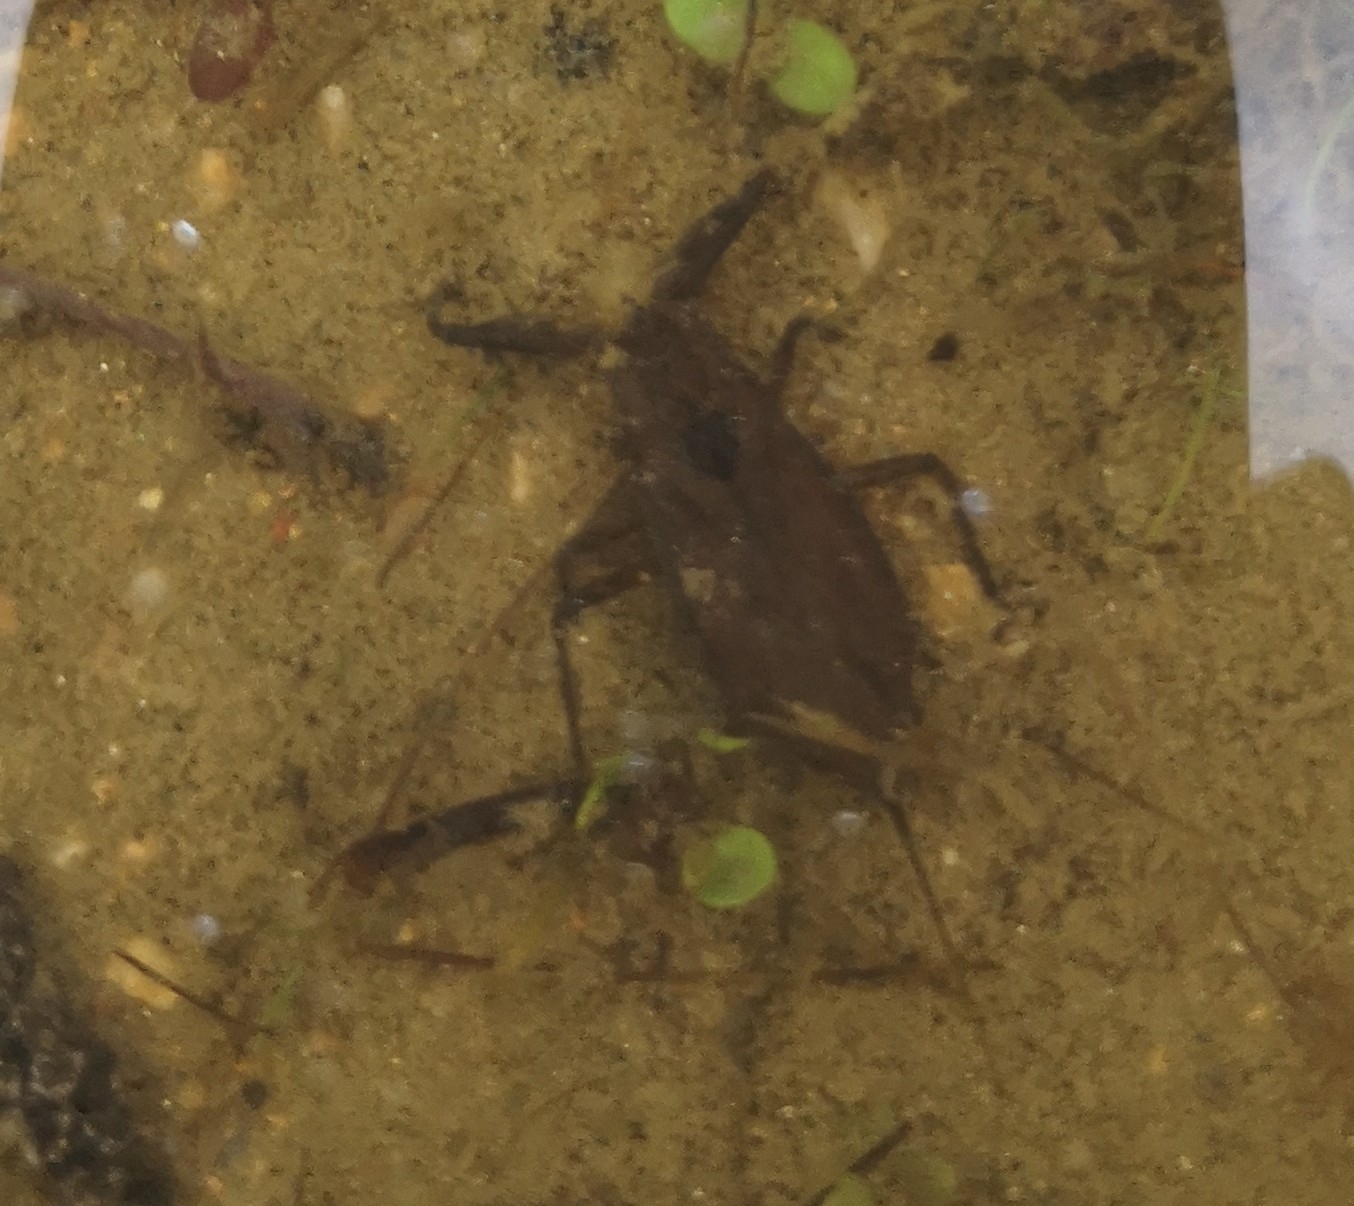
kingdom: Animalia
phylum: Arthropoda
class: Insecta
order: Hemiptera
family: Nepidae
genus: Nepa
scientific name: Nepa cinerea
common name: Water scorpion
